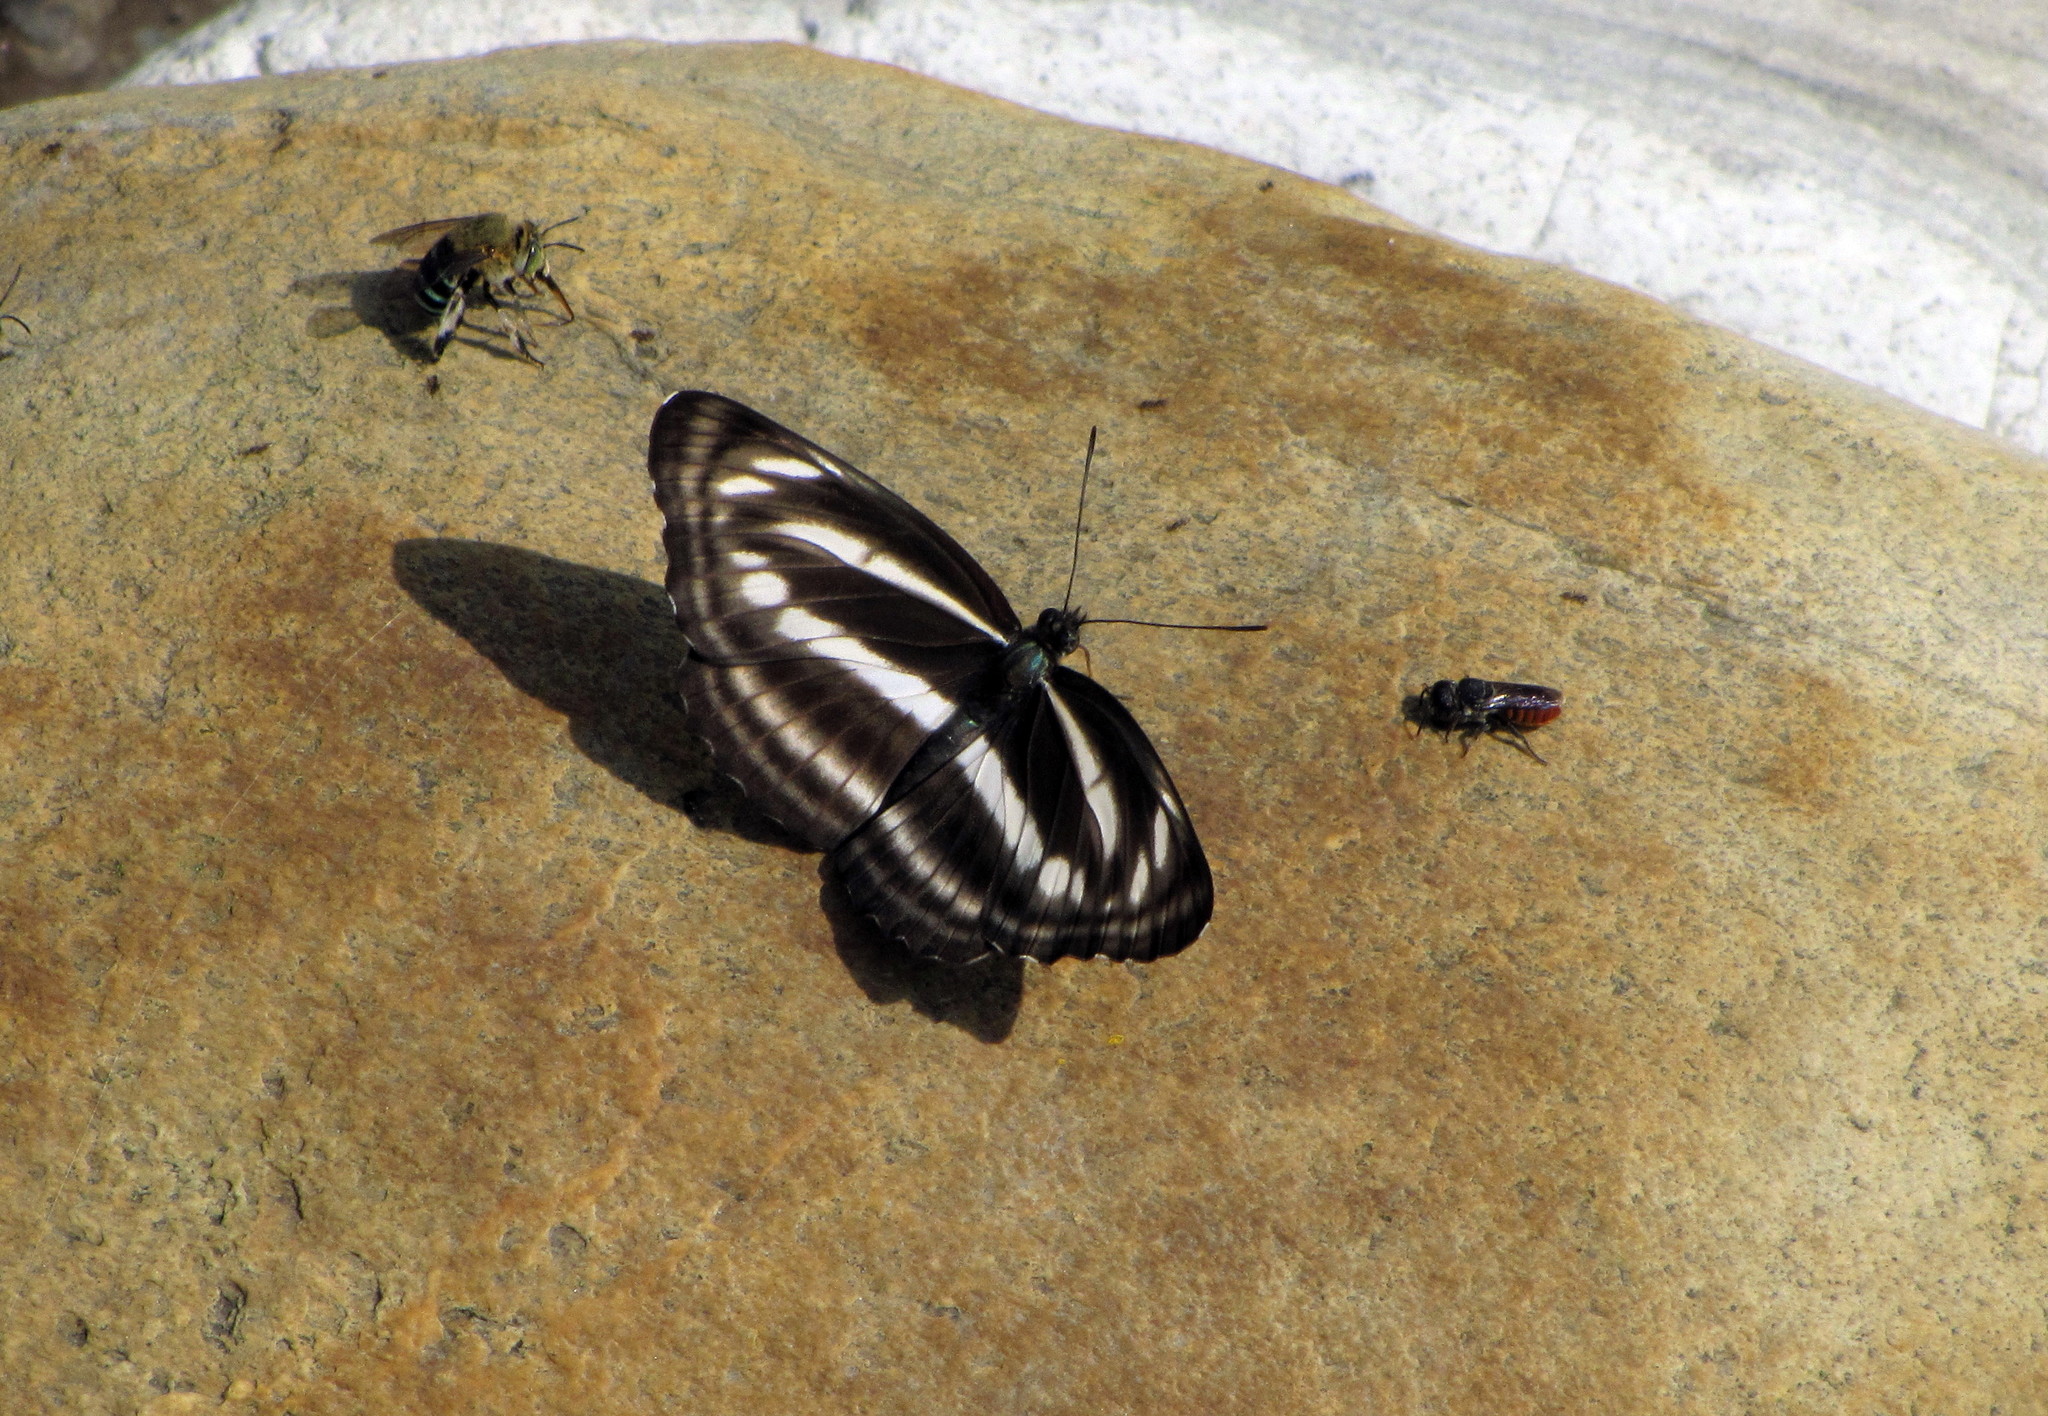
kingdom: Animalia
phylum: Arthropoda
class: Insecta
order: Lepidoptera
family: Nymphalidae
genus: Neptis
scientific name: Neptis sankara
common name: Broad-banded sailer
